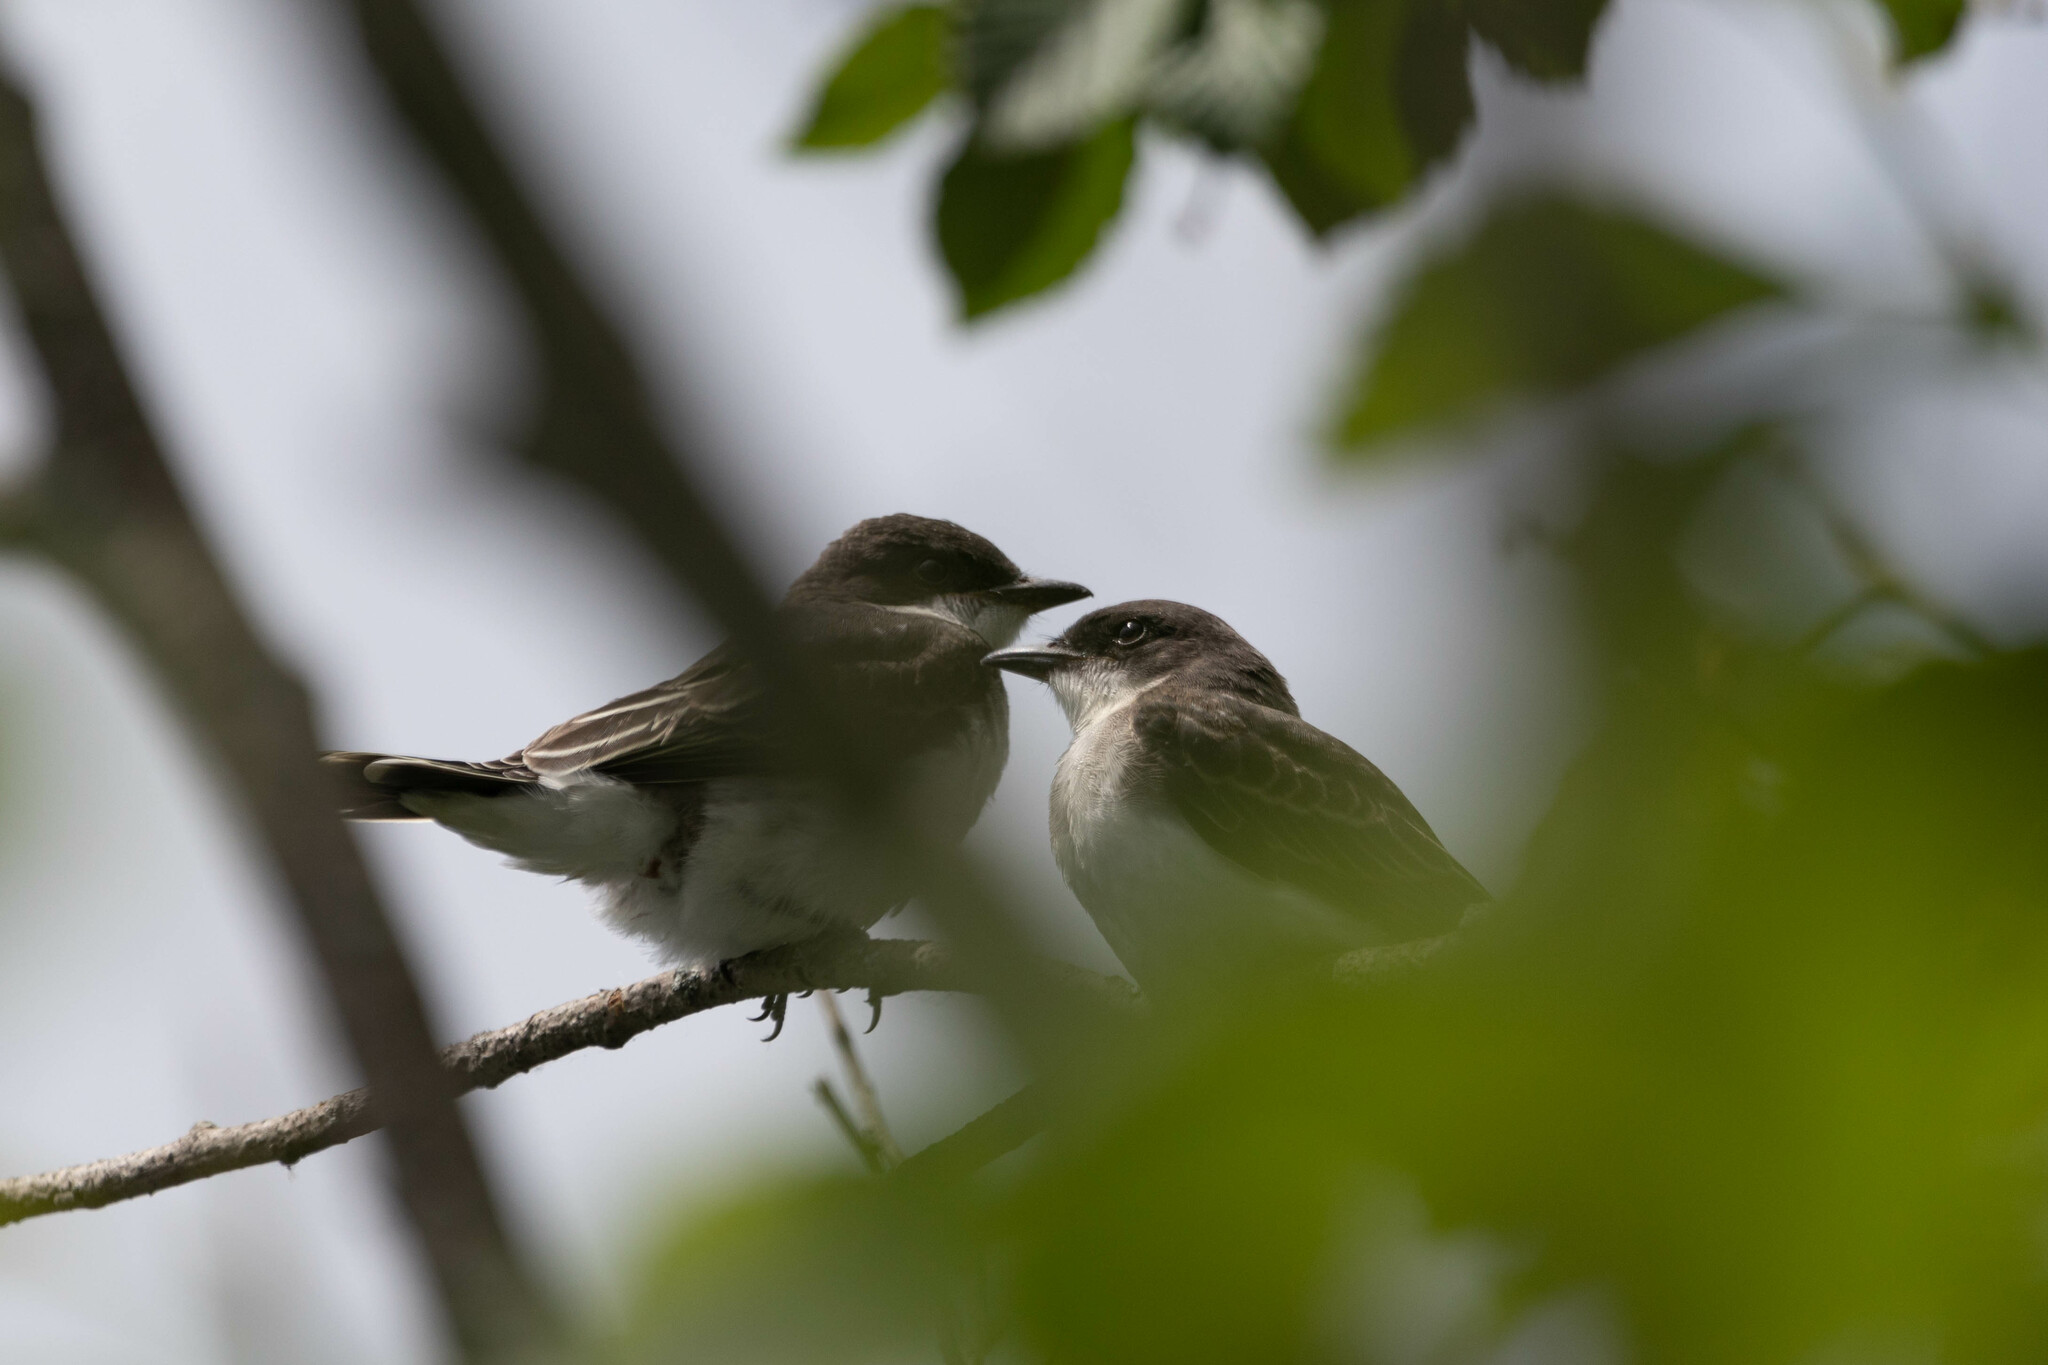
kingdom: Animalia
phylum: Chordata
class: Aves
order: Passeriformes
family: Tyrannidae
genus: Tyrannus
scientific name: Tyrannus tyrannus
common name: Eastern kingbird
